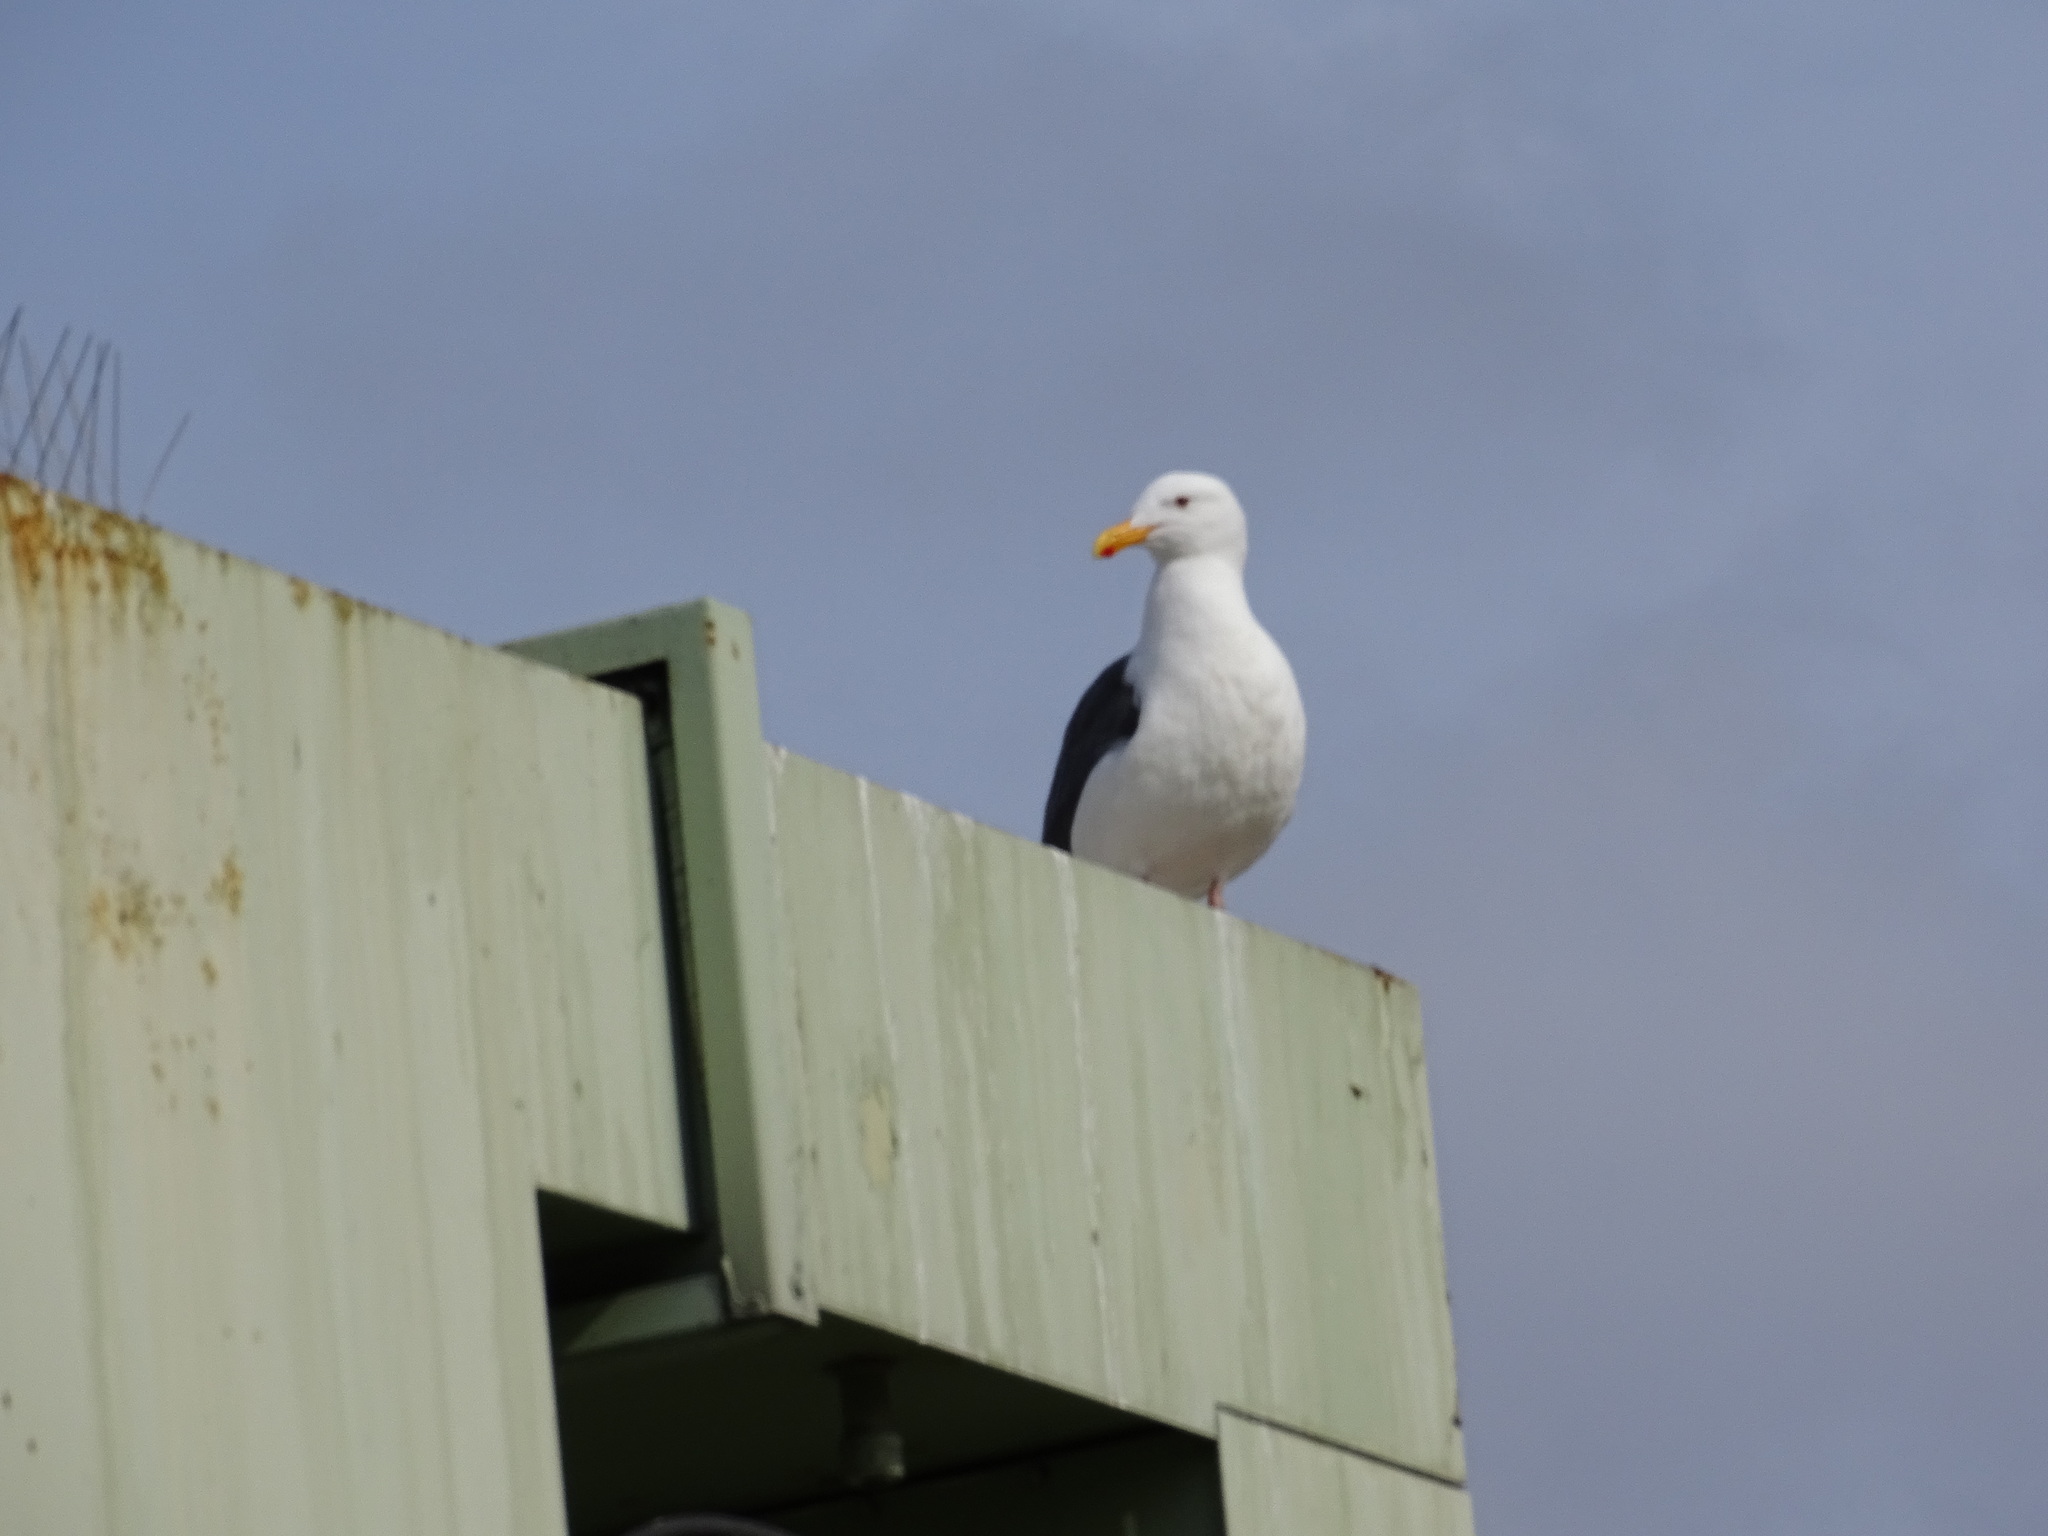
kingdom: Animalia
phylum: Chordata
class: Aves
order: Charadriiformes
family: Laridae
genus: Larus
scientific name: Larus occidentalis
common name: Western gull
